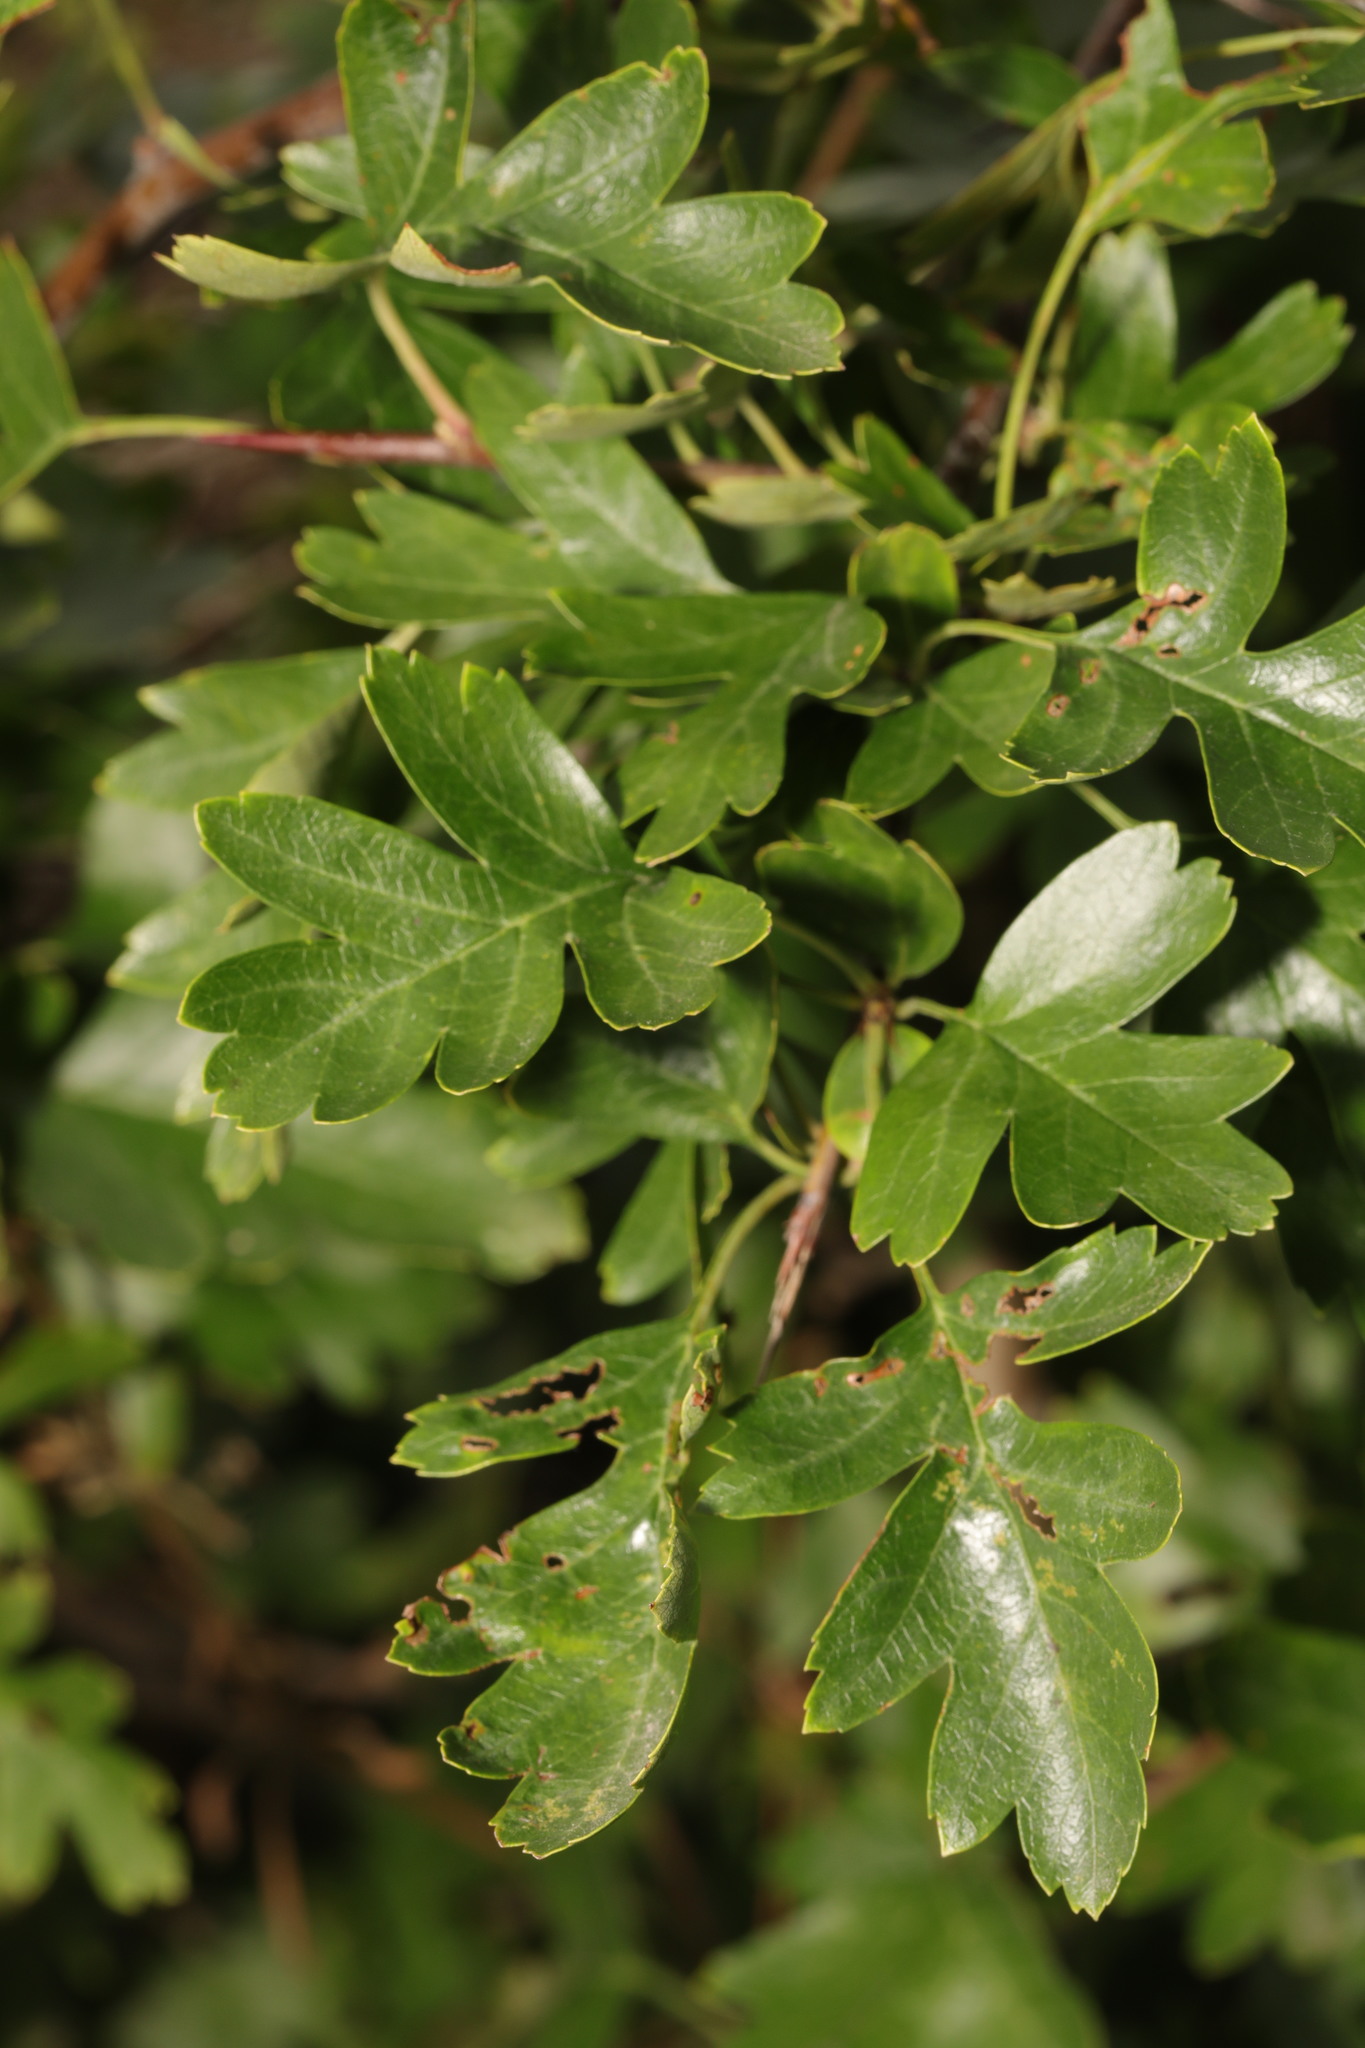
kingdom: Plantae
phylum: Tracheophyta
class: Magnoliopsida
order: Rosales
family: Rosaceae
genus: Crataegus
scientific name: Crataegus monogyna
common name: Hawthorn
